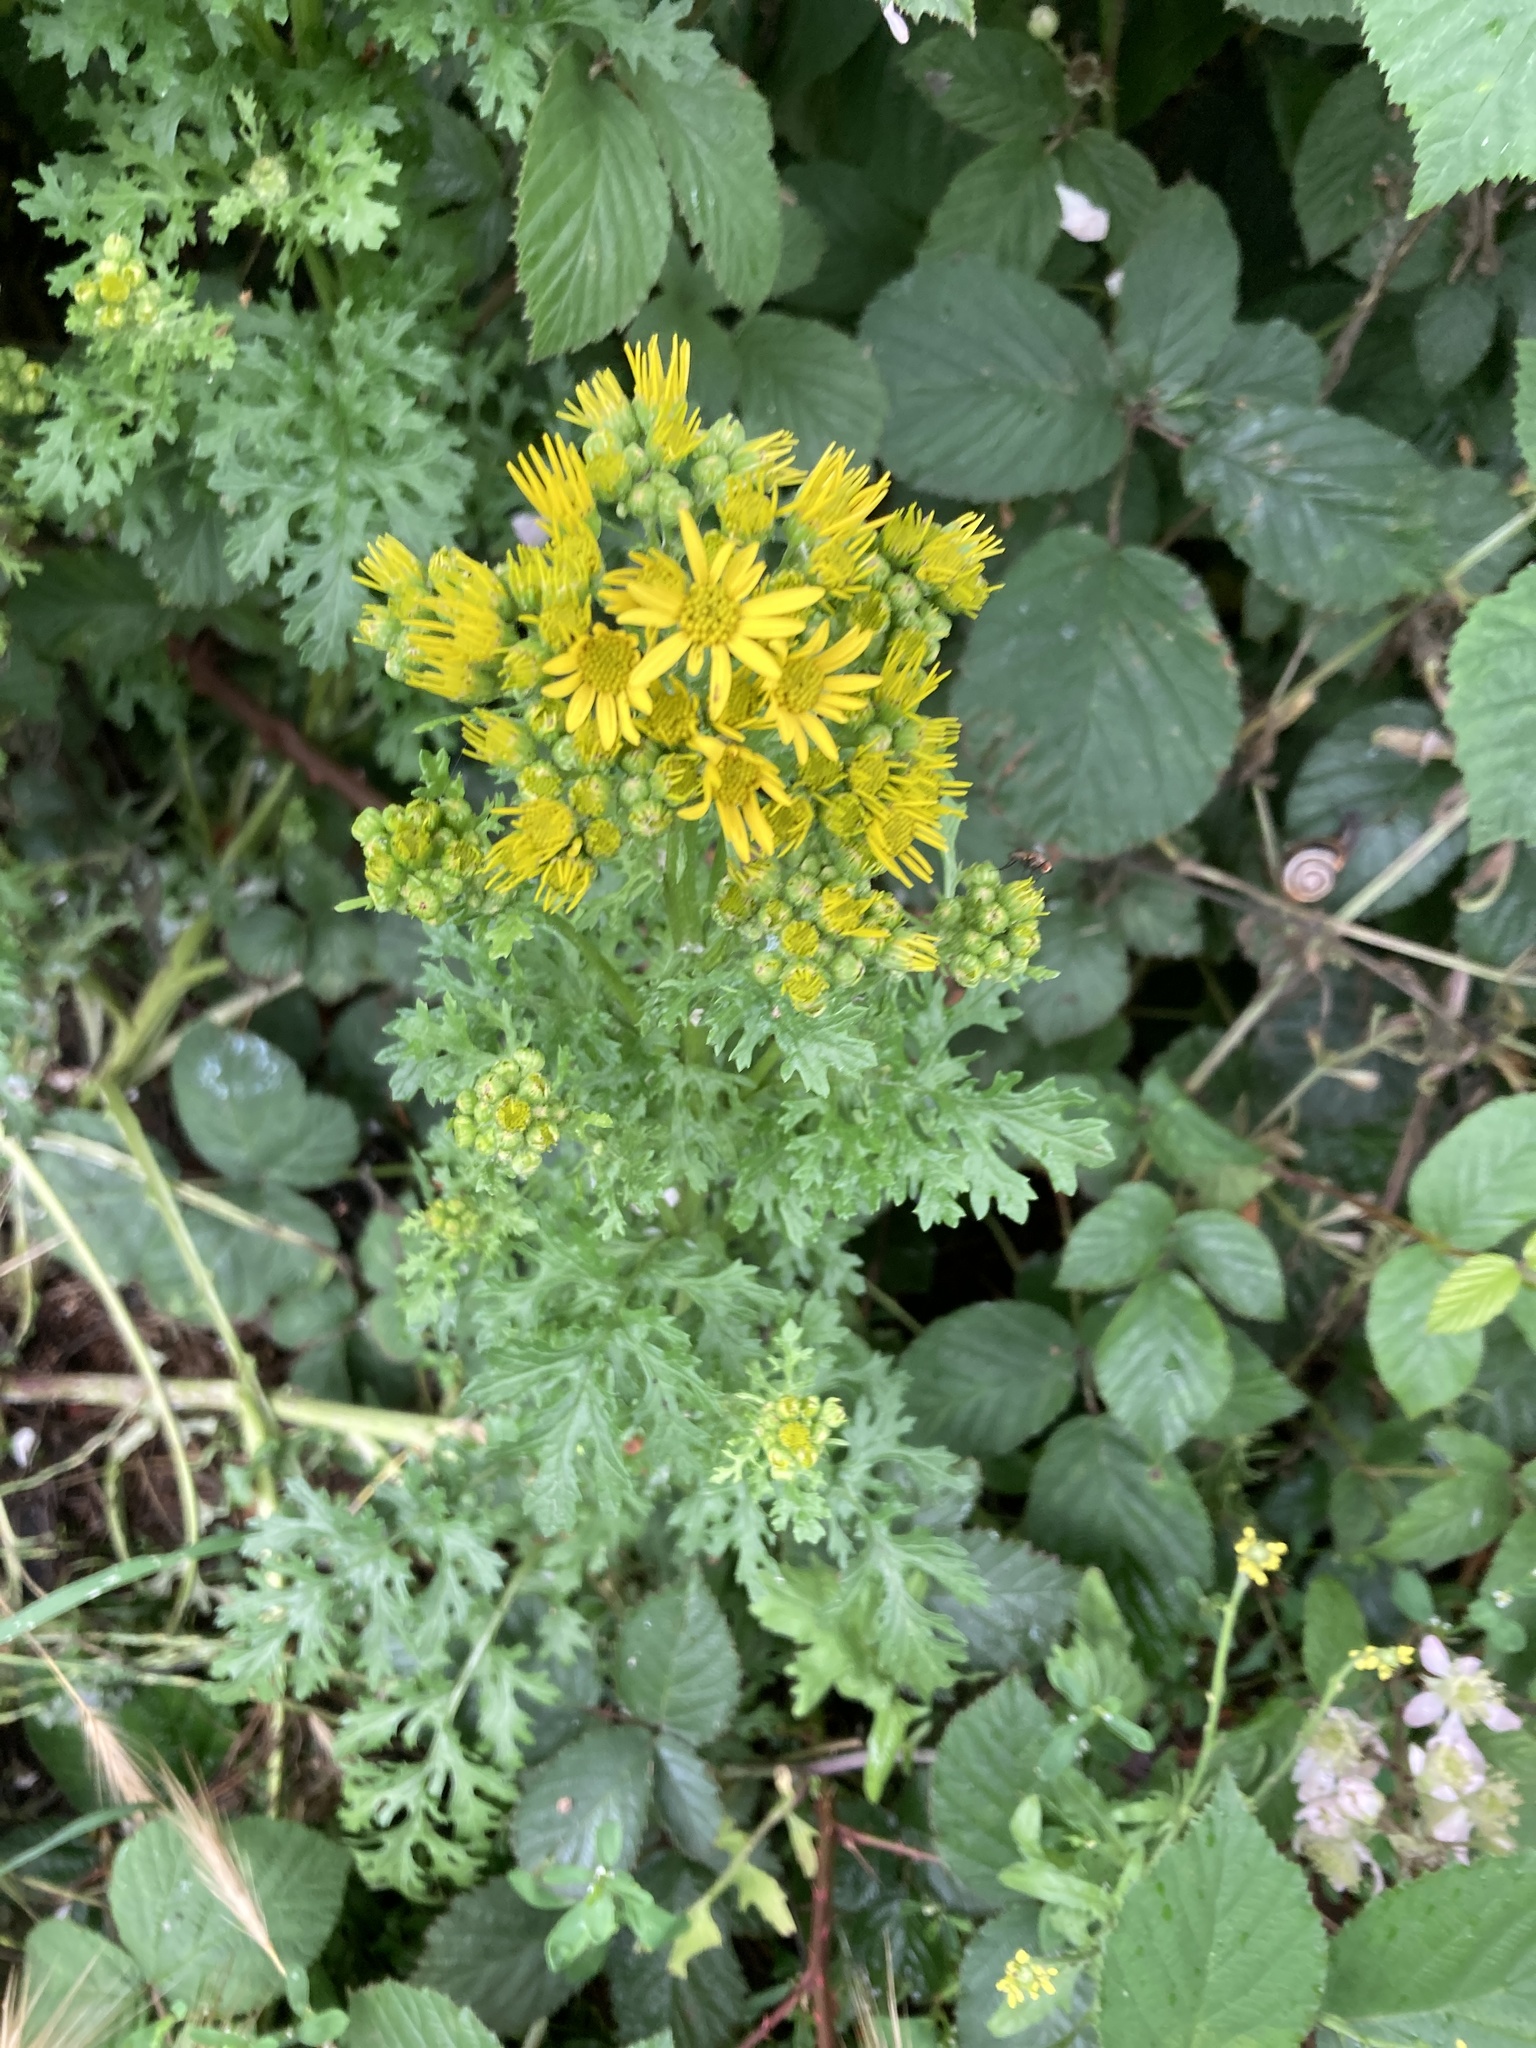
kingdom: Plantae
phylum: Tracheophyta
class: Magnoliopsida
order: Asterales
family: Asteraceae
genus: Jacobaea
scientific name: Jacobaea vulgaris
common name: Stinking willie
